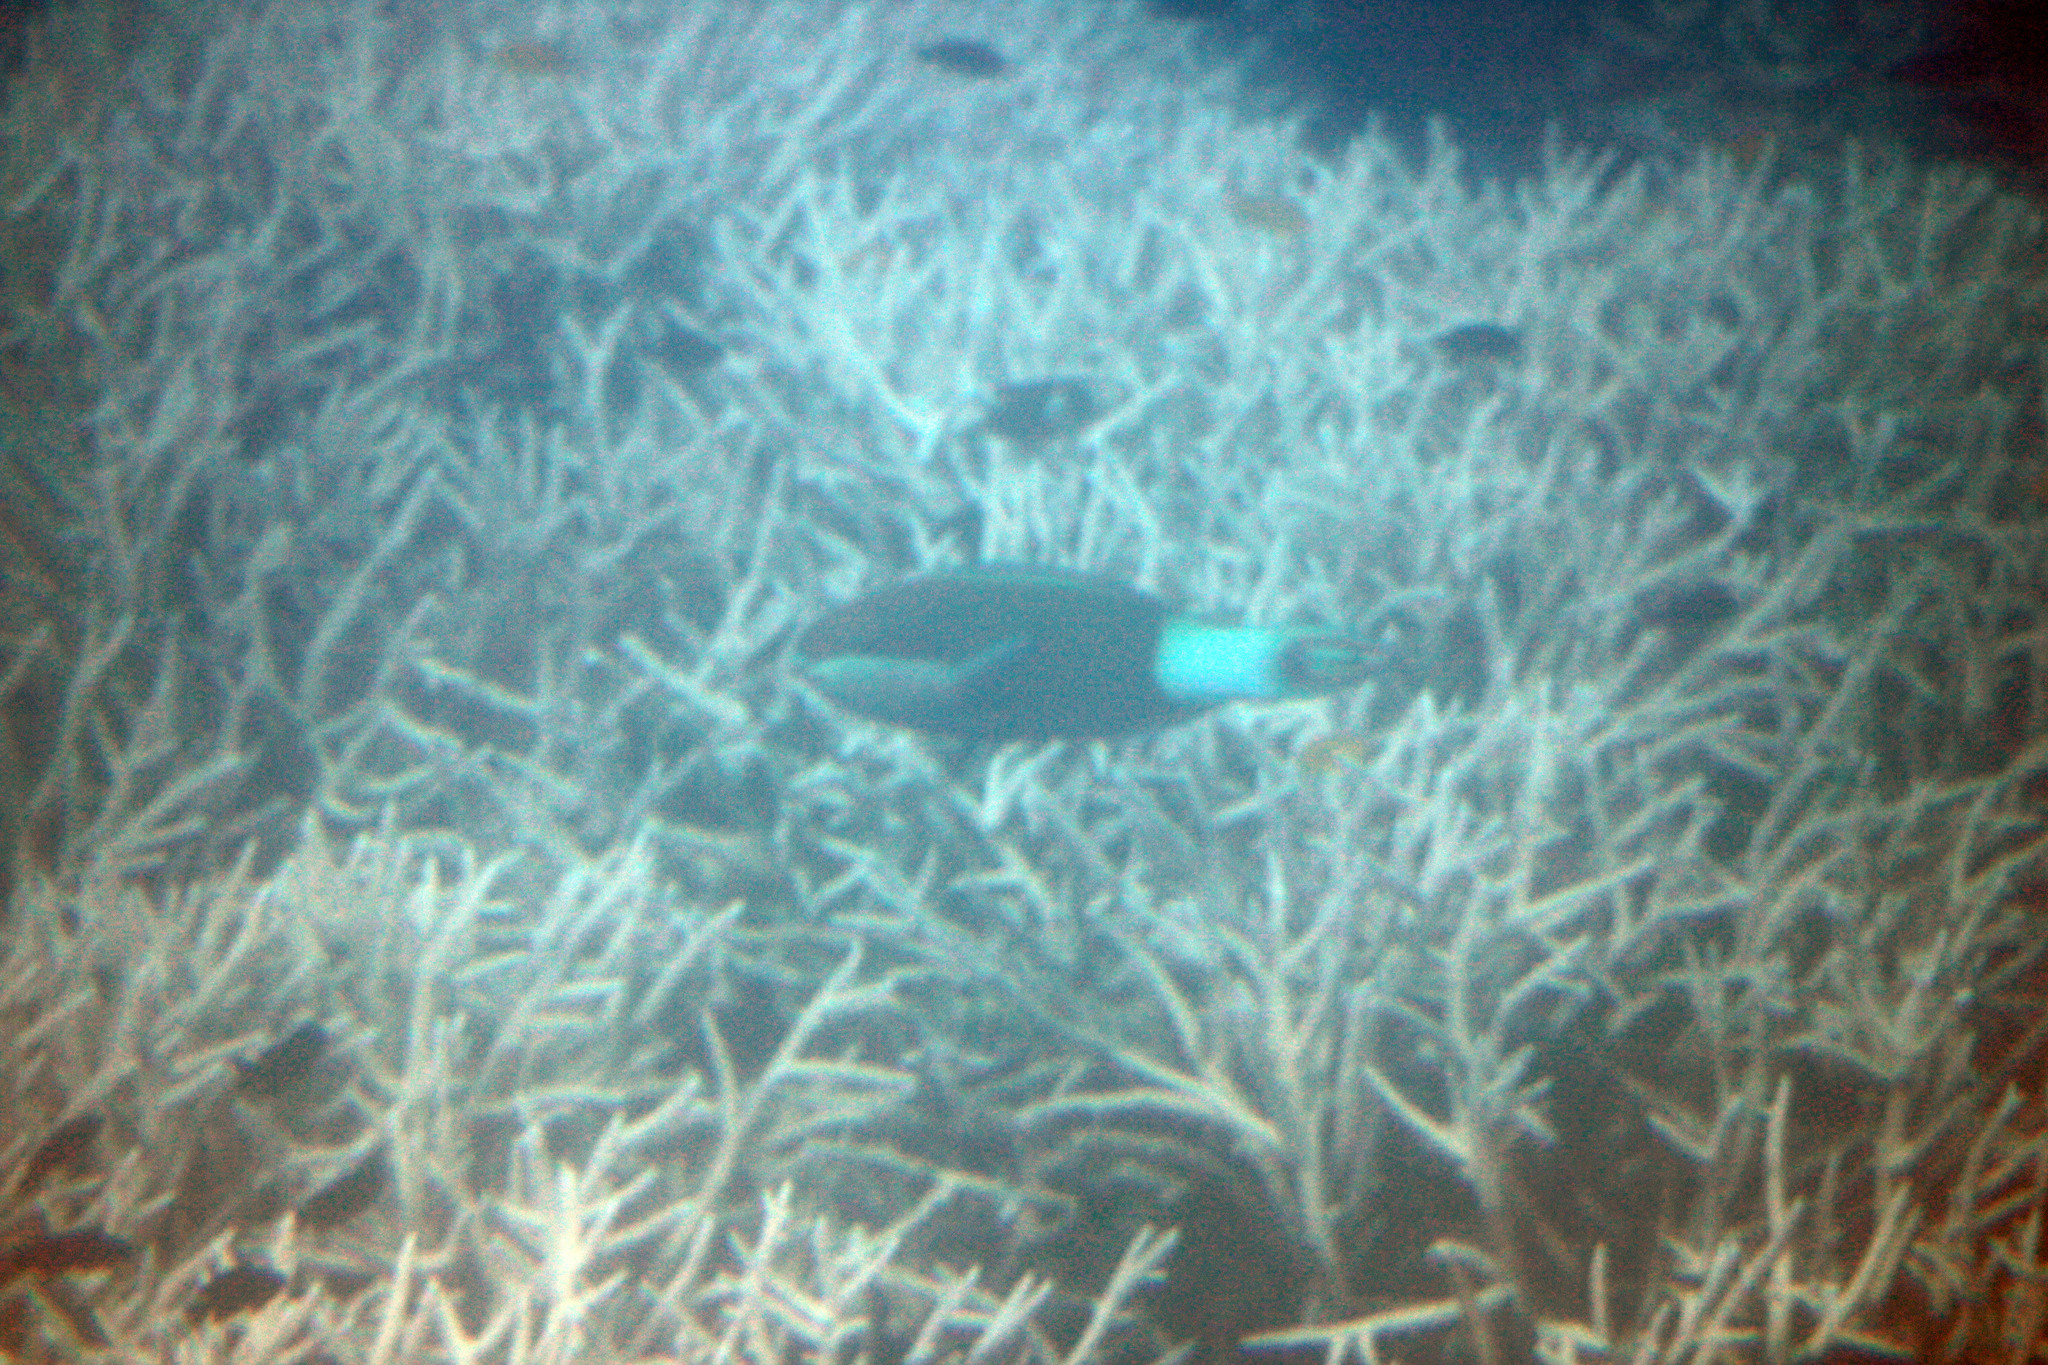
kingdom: Animalia
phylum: Chordata
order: Perciformes
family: Scaridae
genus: Scarus
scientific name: Scarus frenatus
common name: Bridled parrotfish
